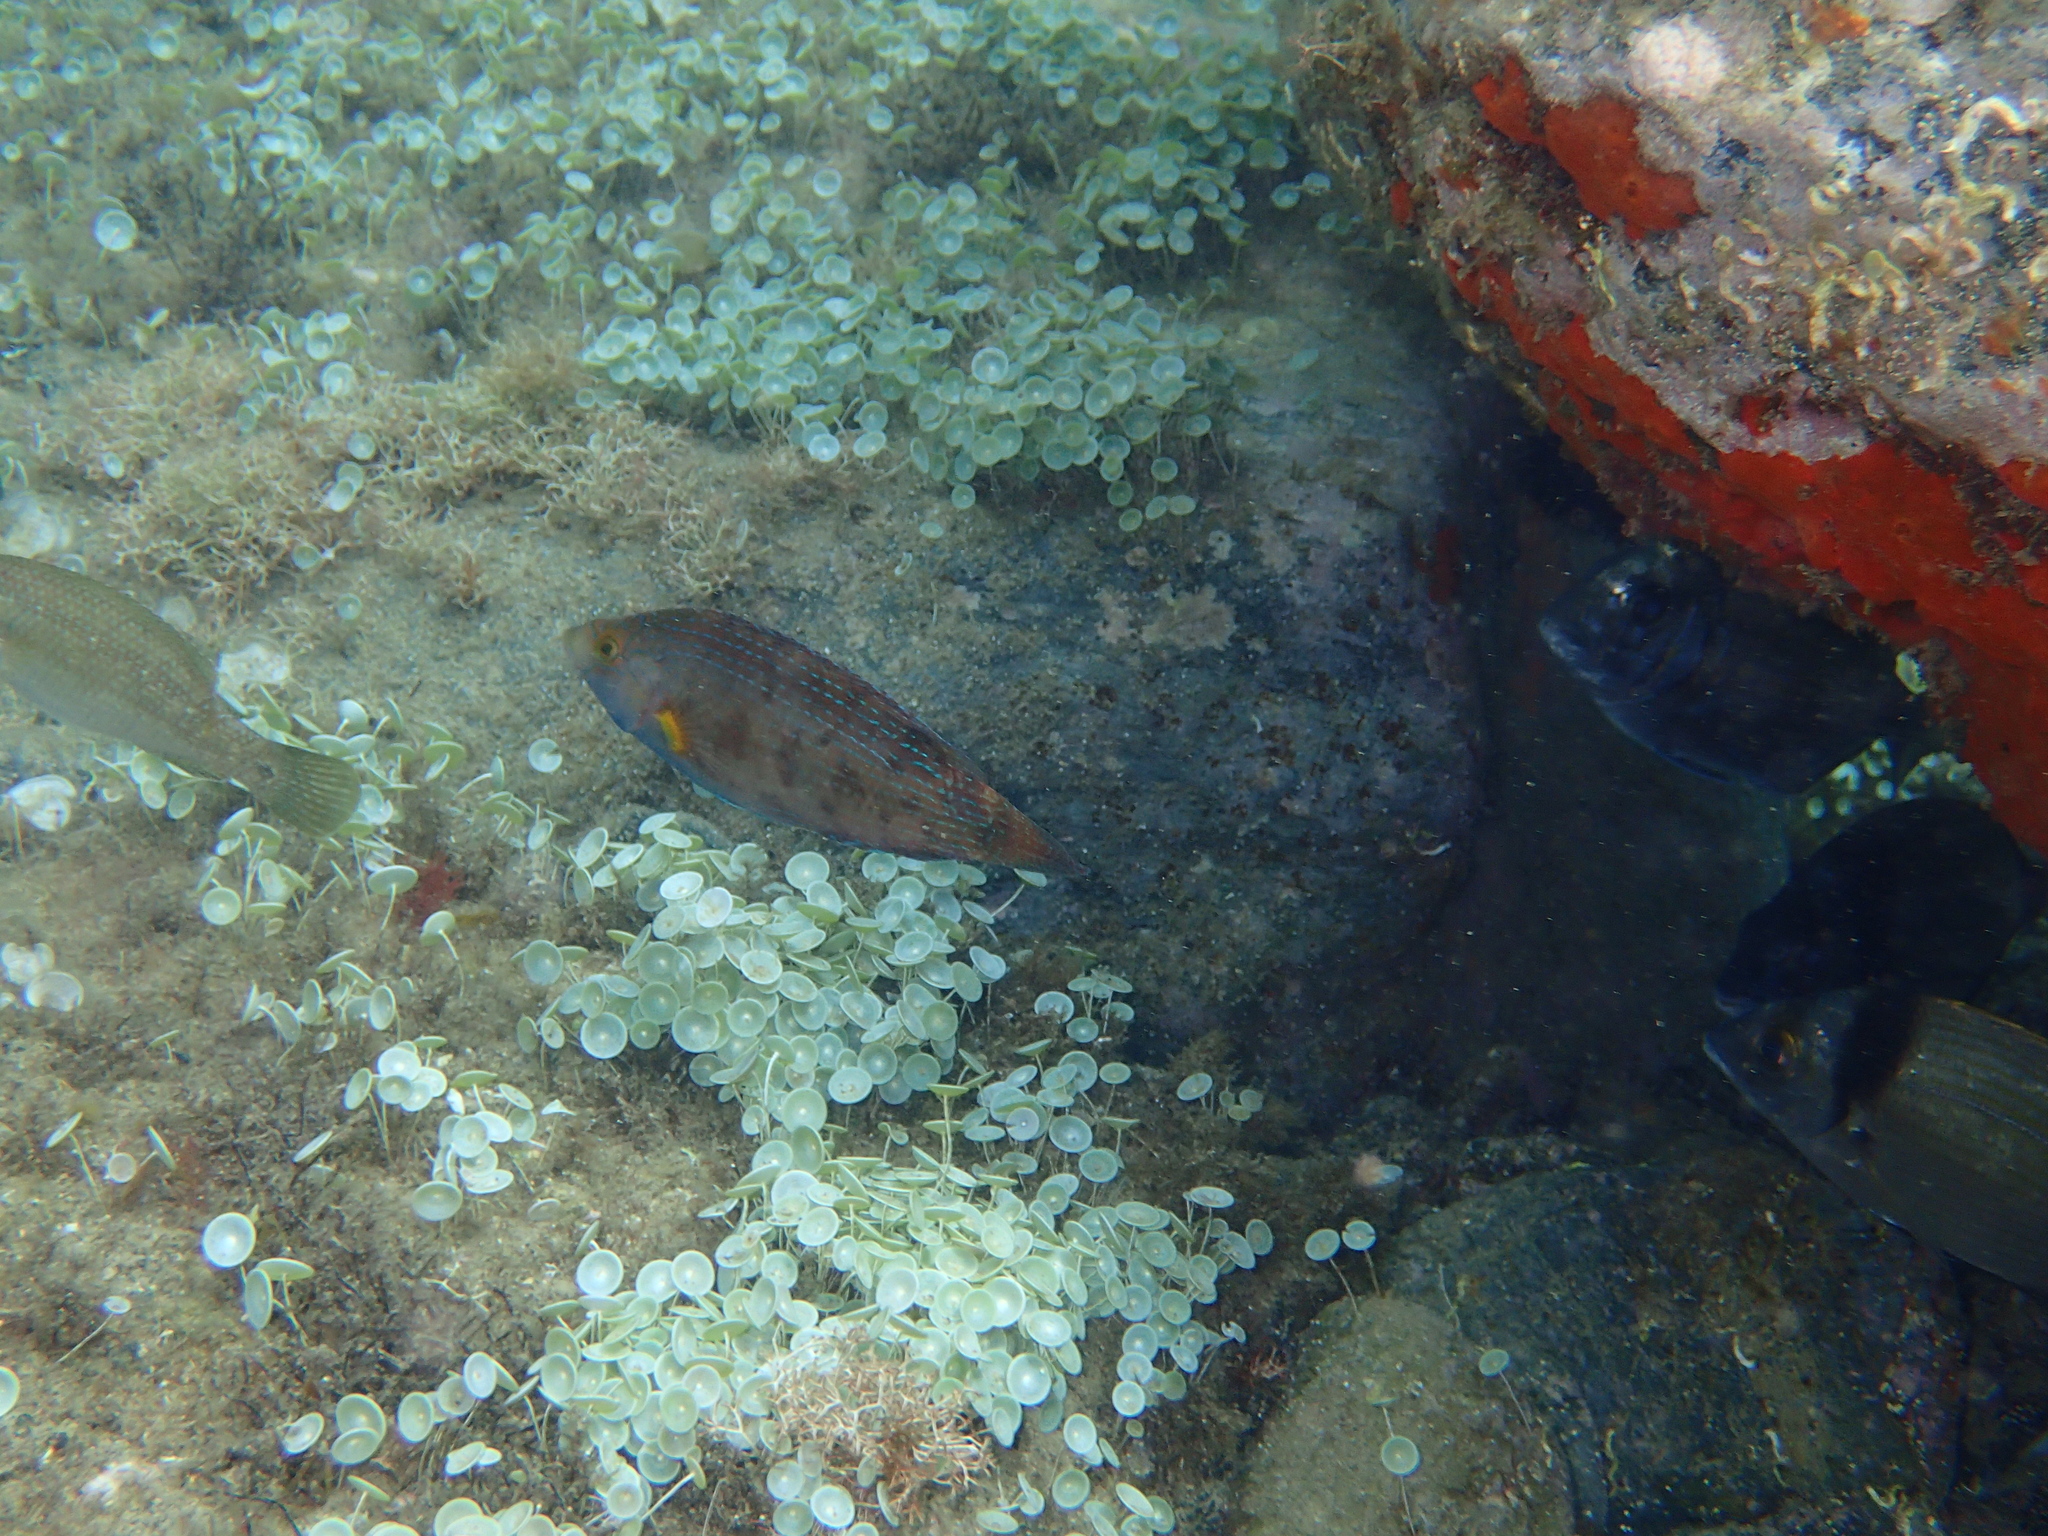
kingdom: Animalia
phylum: Chordata
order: Perciformes
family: Labridae
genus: Symphodus
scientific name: Symphodus mediterraneus
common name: Axillary wrasse
